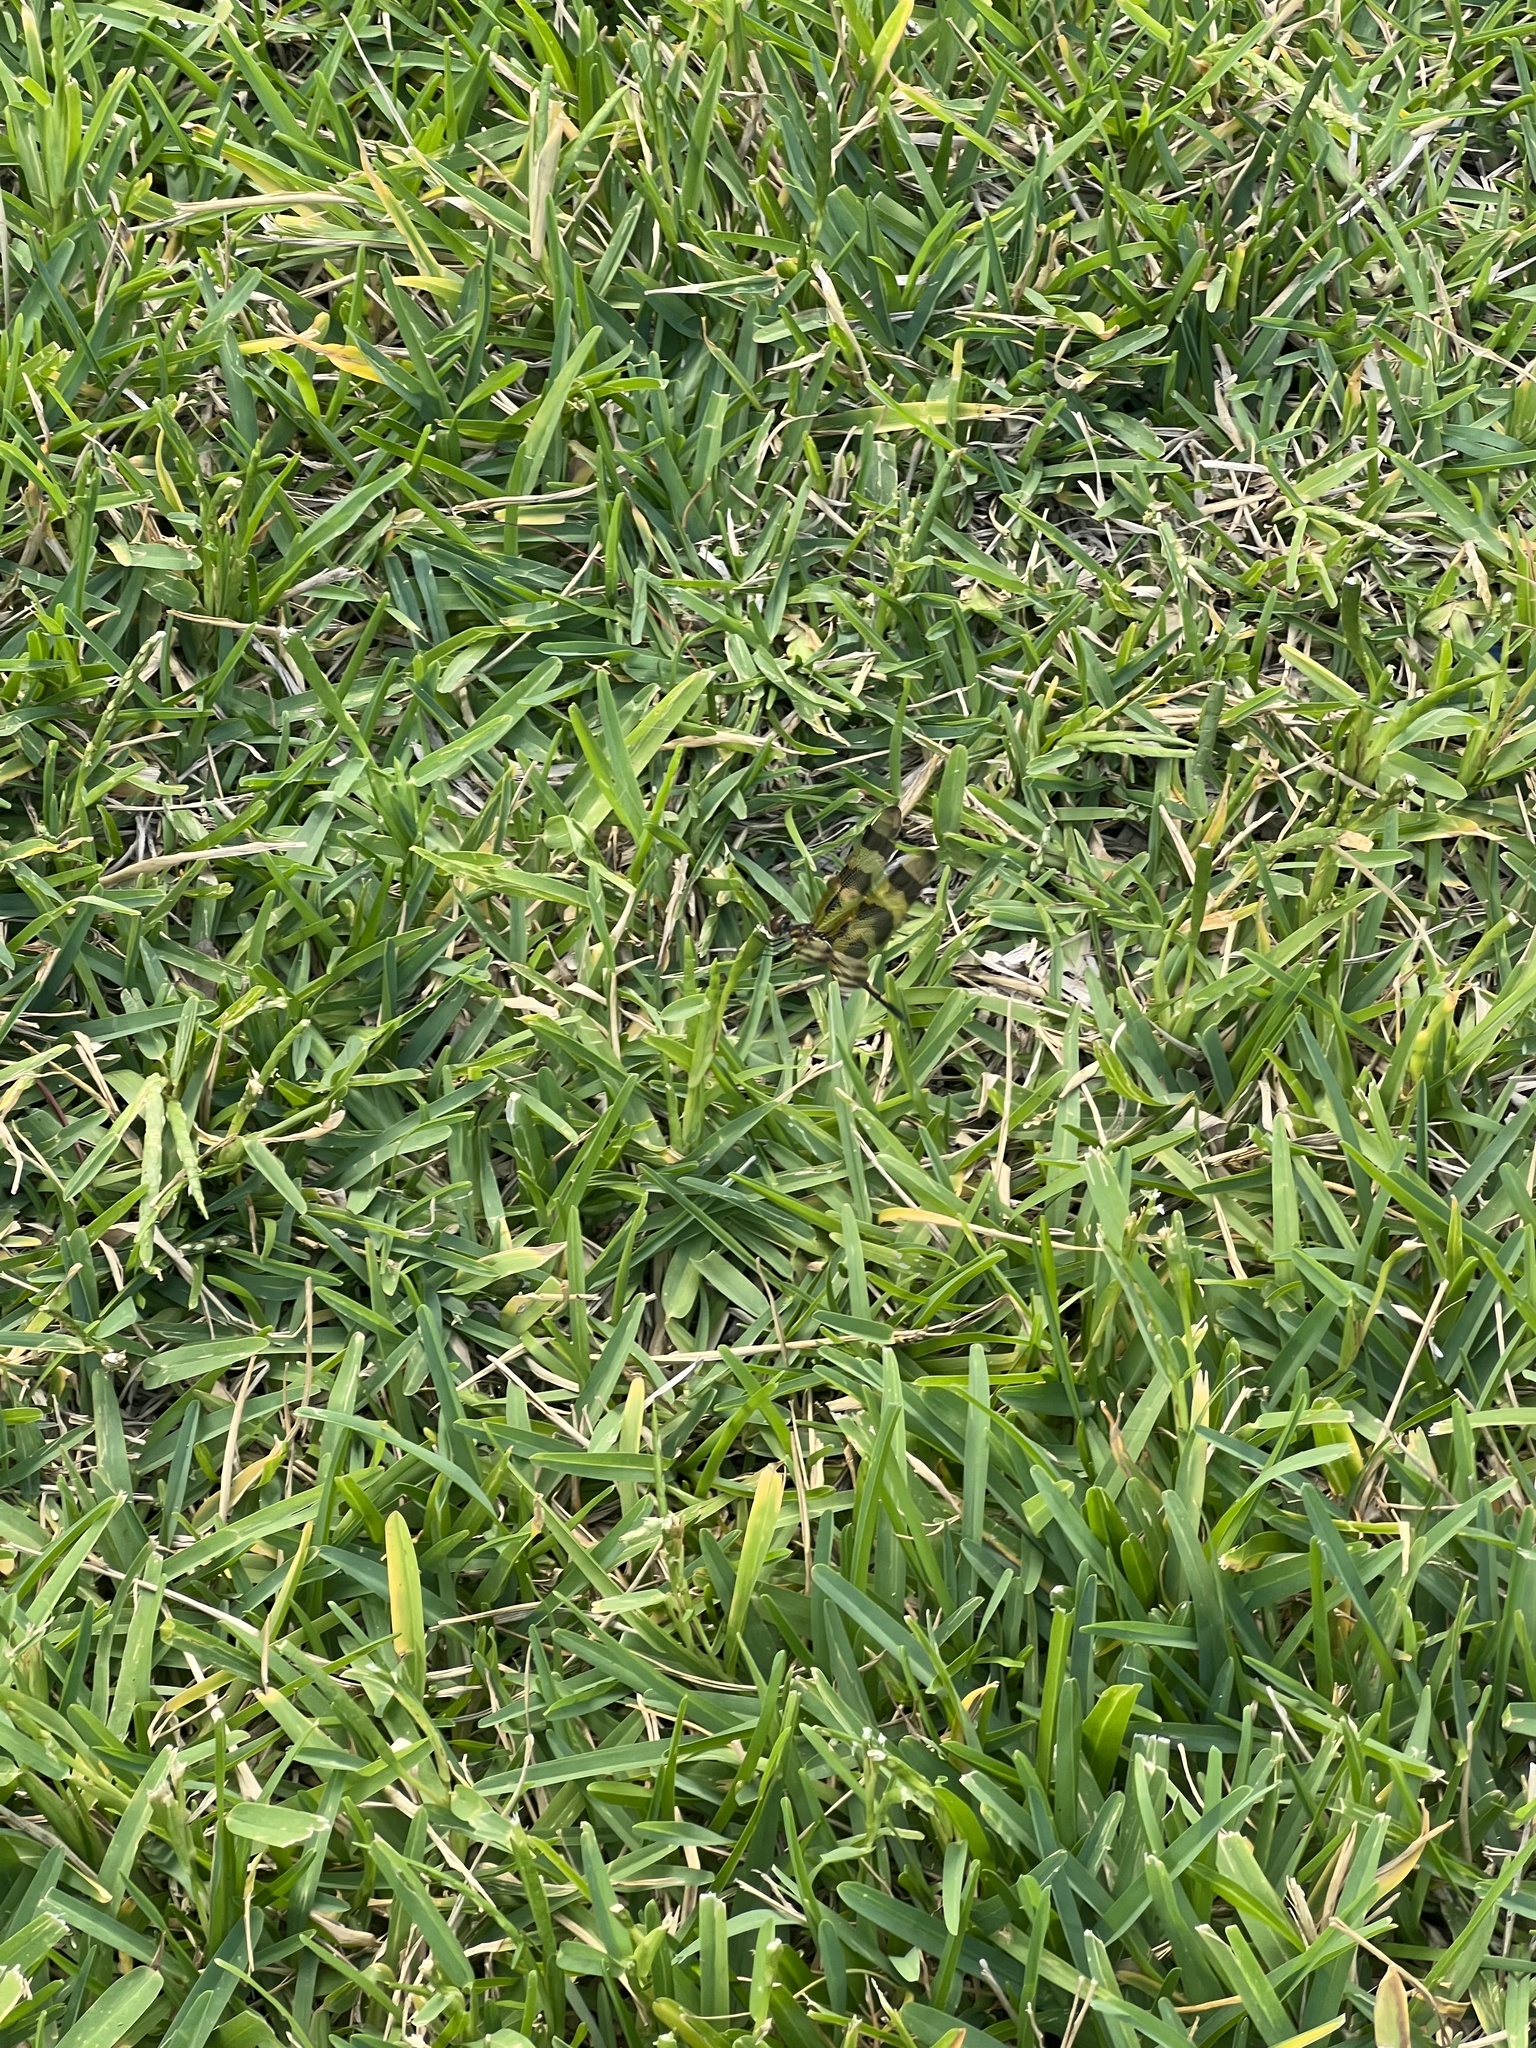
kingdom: Animalia
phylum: Arthropoda
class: Insecta
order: Odonata
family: Libellulidae
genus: Celithemis
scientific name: Celithemis eponina
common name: Halloween pennant
